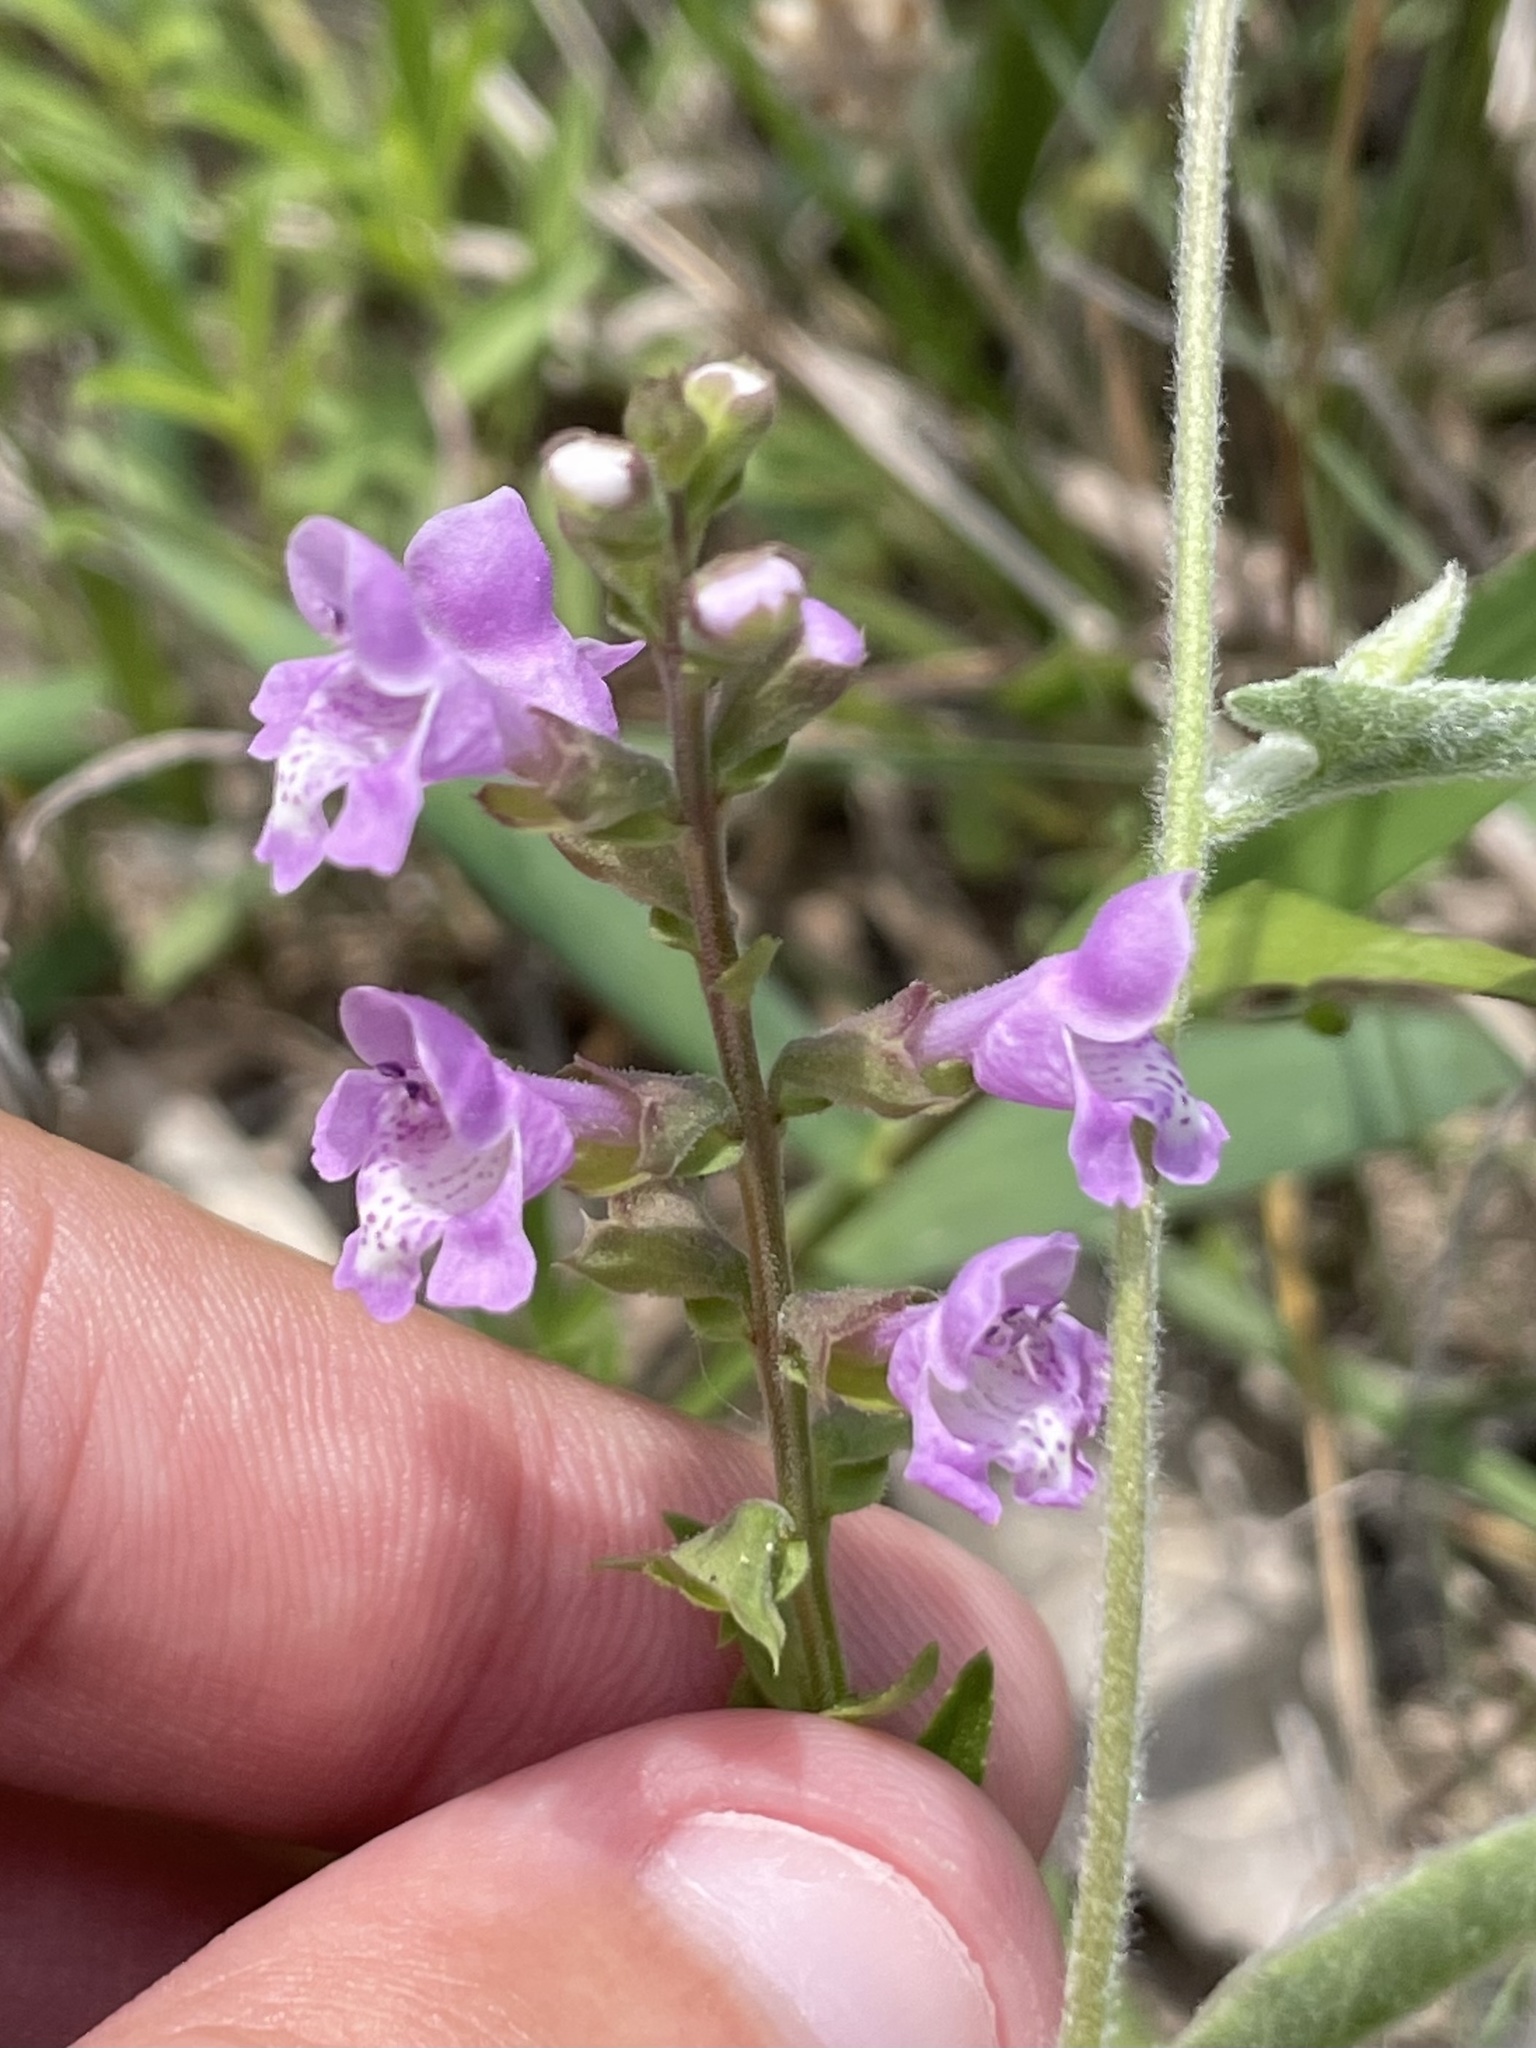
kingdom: Plantae
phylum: Tracheophyta
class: Magnoliopsida
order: Lamiales
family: Lamiaceae
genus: Warnockia
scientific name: Warnockia scutellarioides
